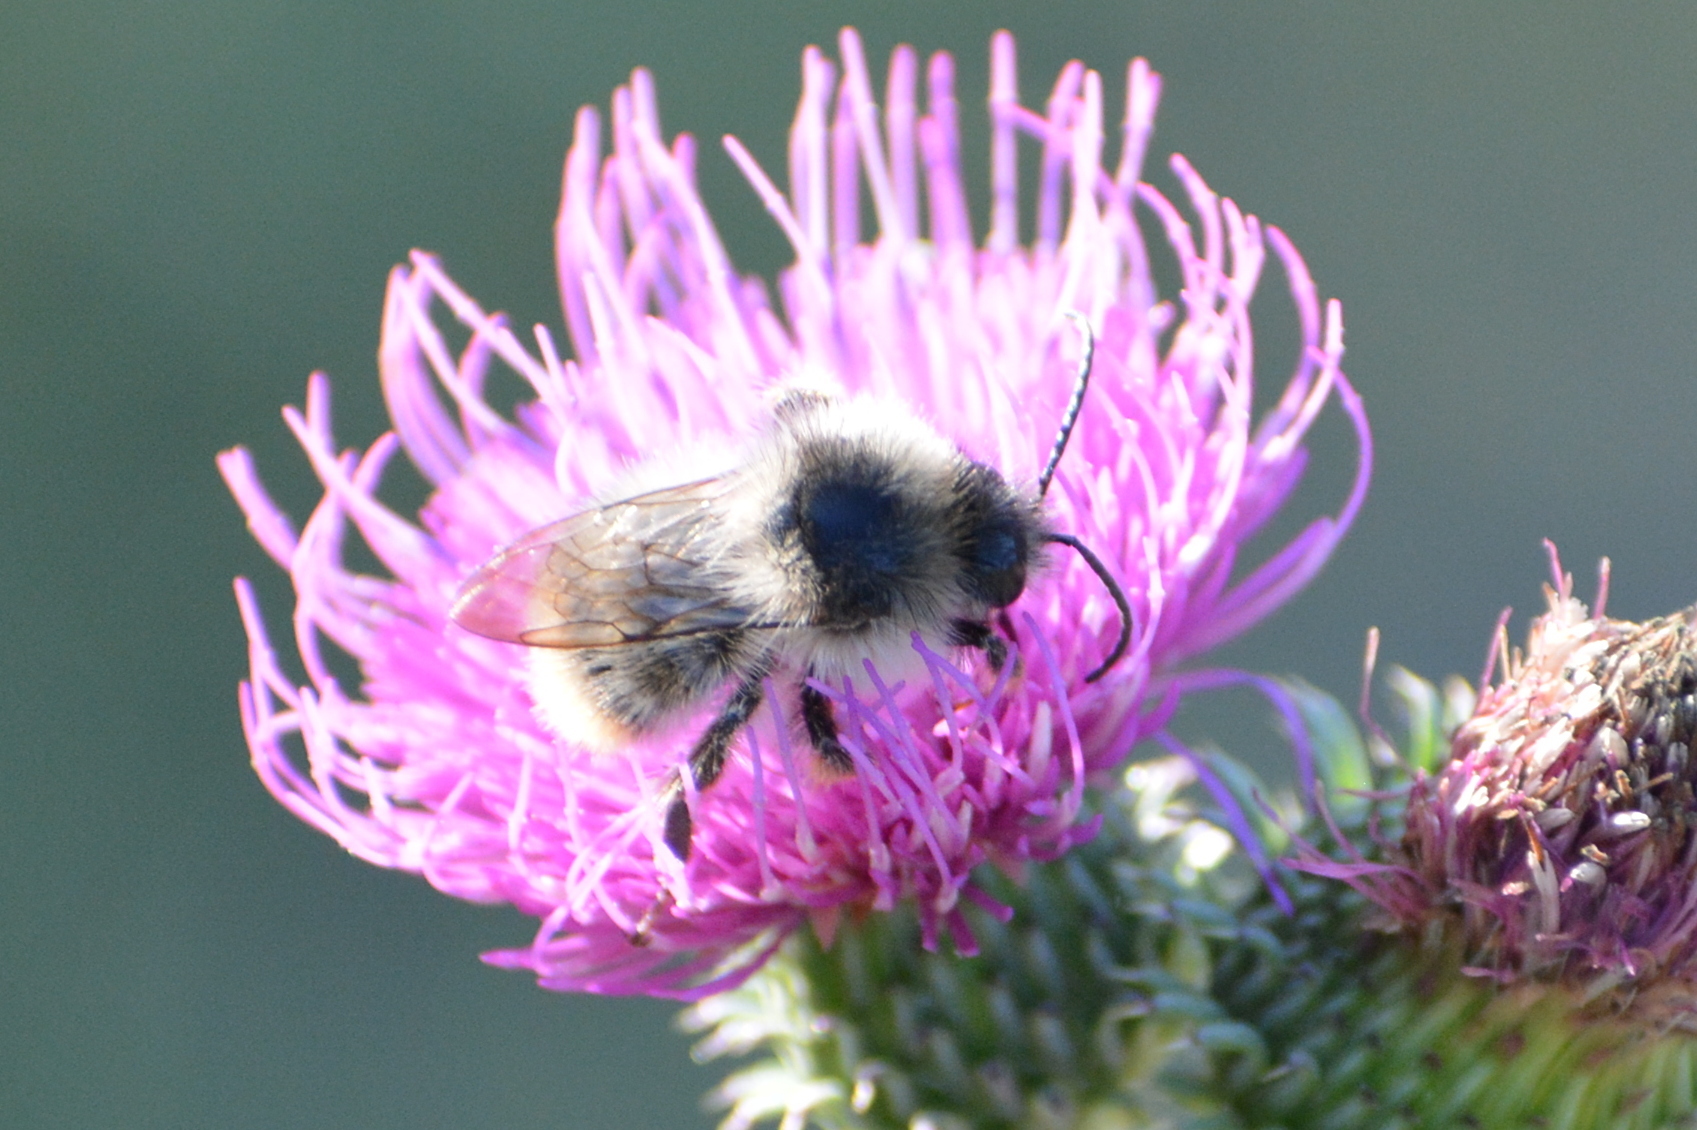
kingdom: Animalia
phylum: Arthropoda
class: Insecta
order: Hymenoptera
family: Apidae
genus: Bombus
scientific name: Bombus sylvarum
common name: Shrill carder bee
